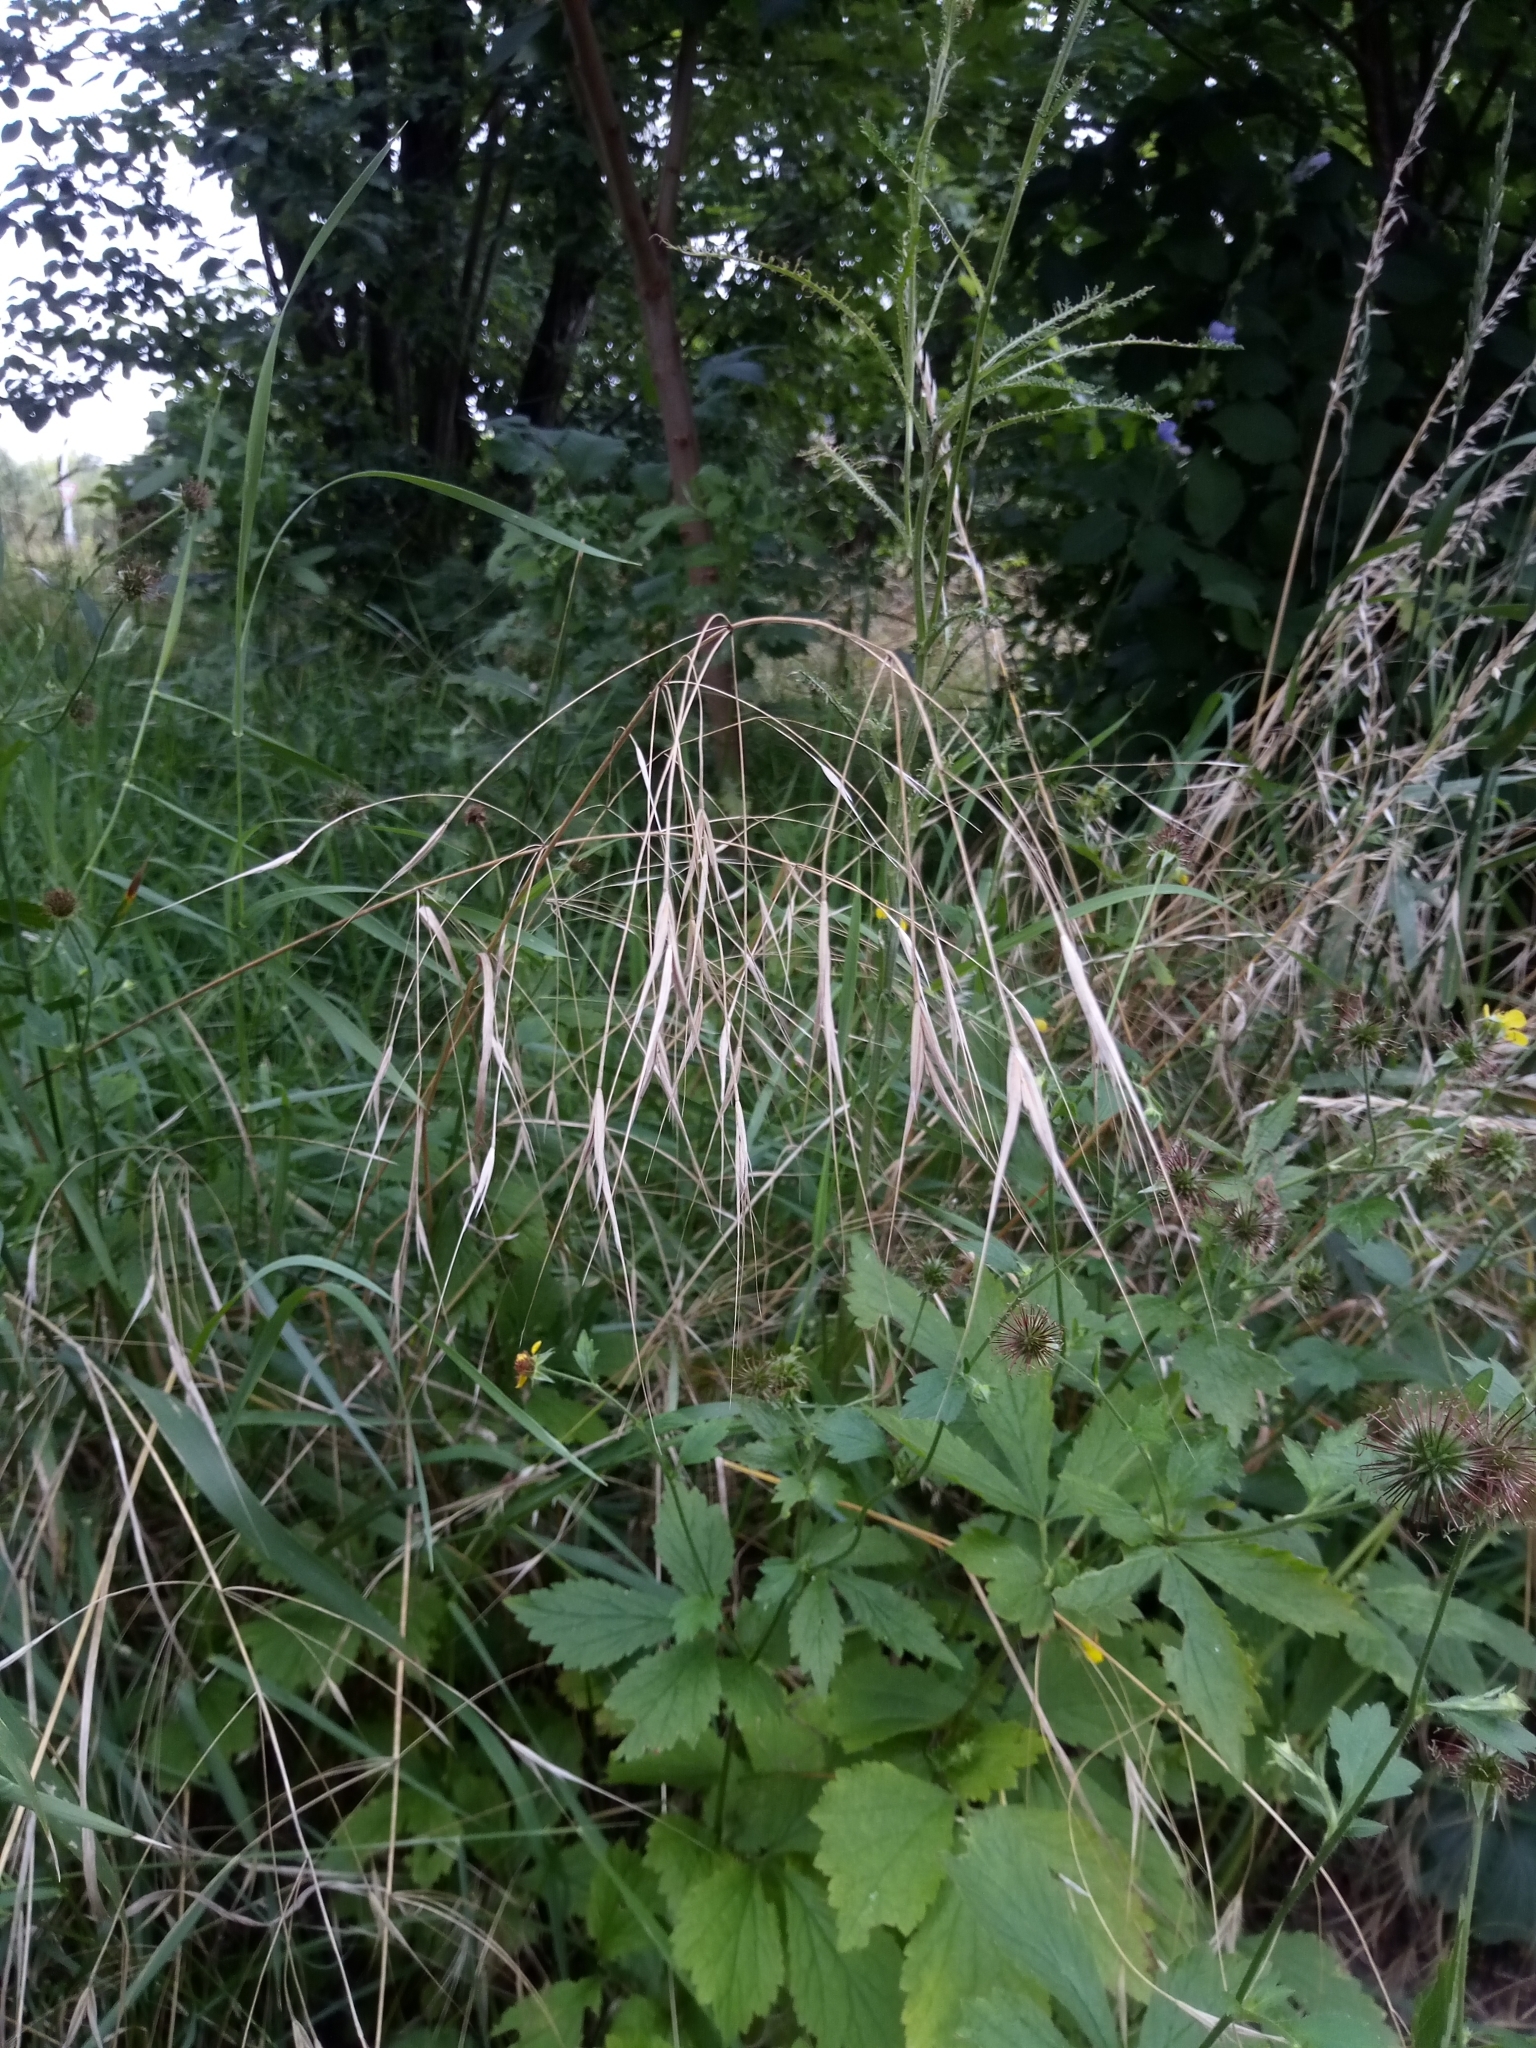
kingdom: Plantae
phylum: Tracheophyta
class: Liliopsida
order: Poales
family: Poaceae
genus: Bromus
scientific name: Bromus sterilis
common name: Poverty brome
